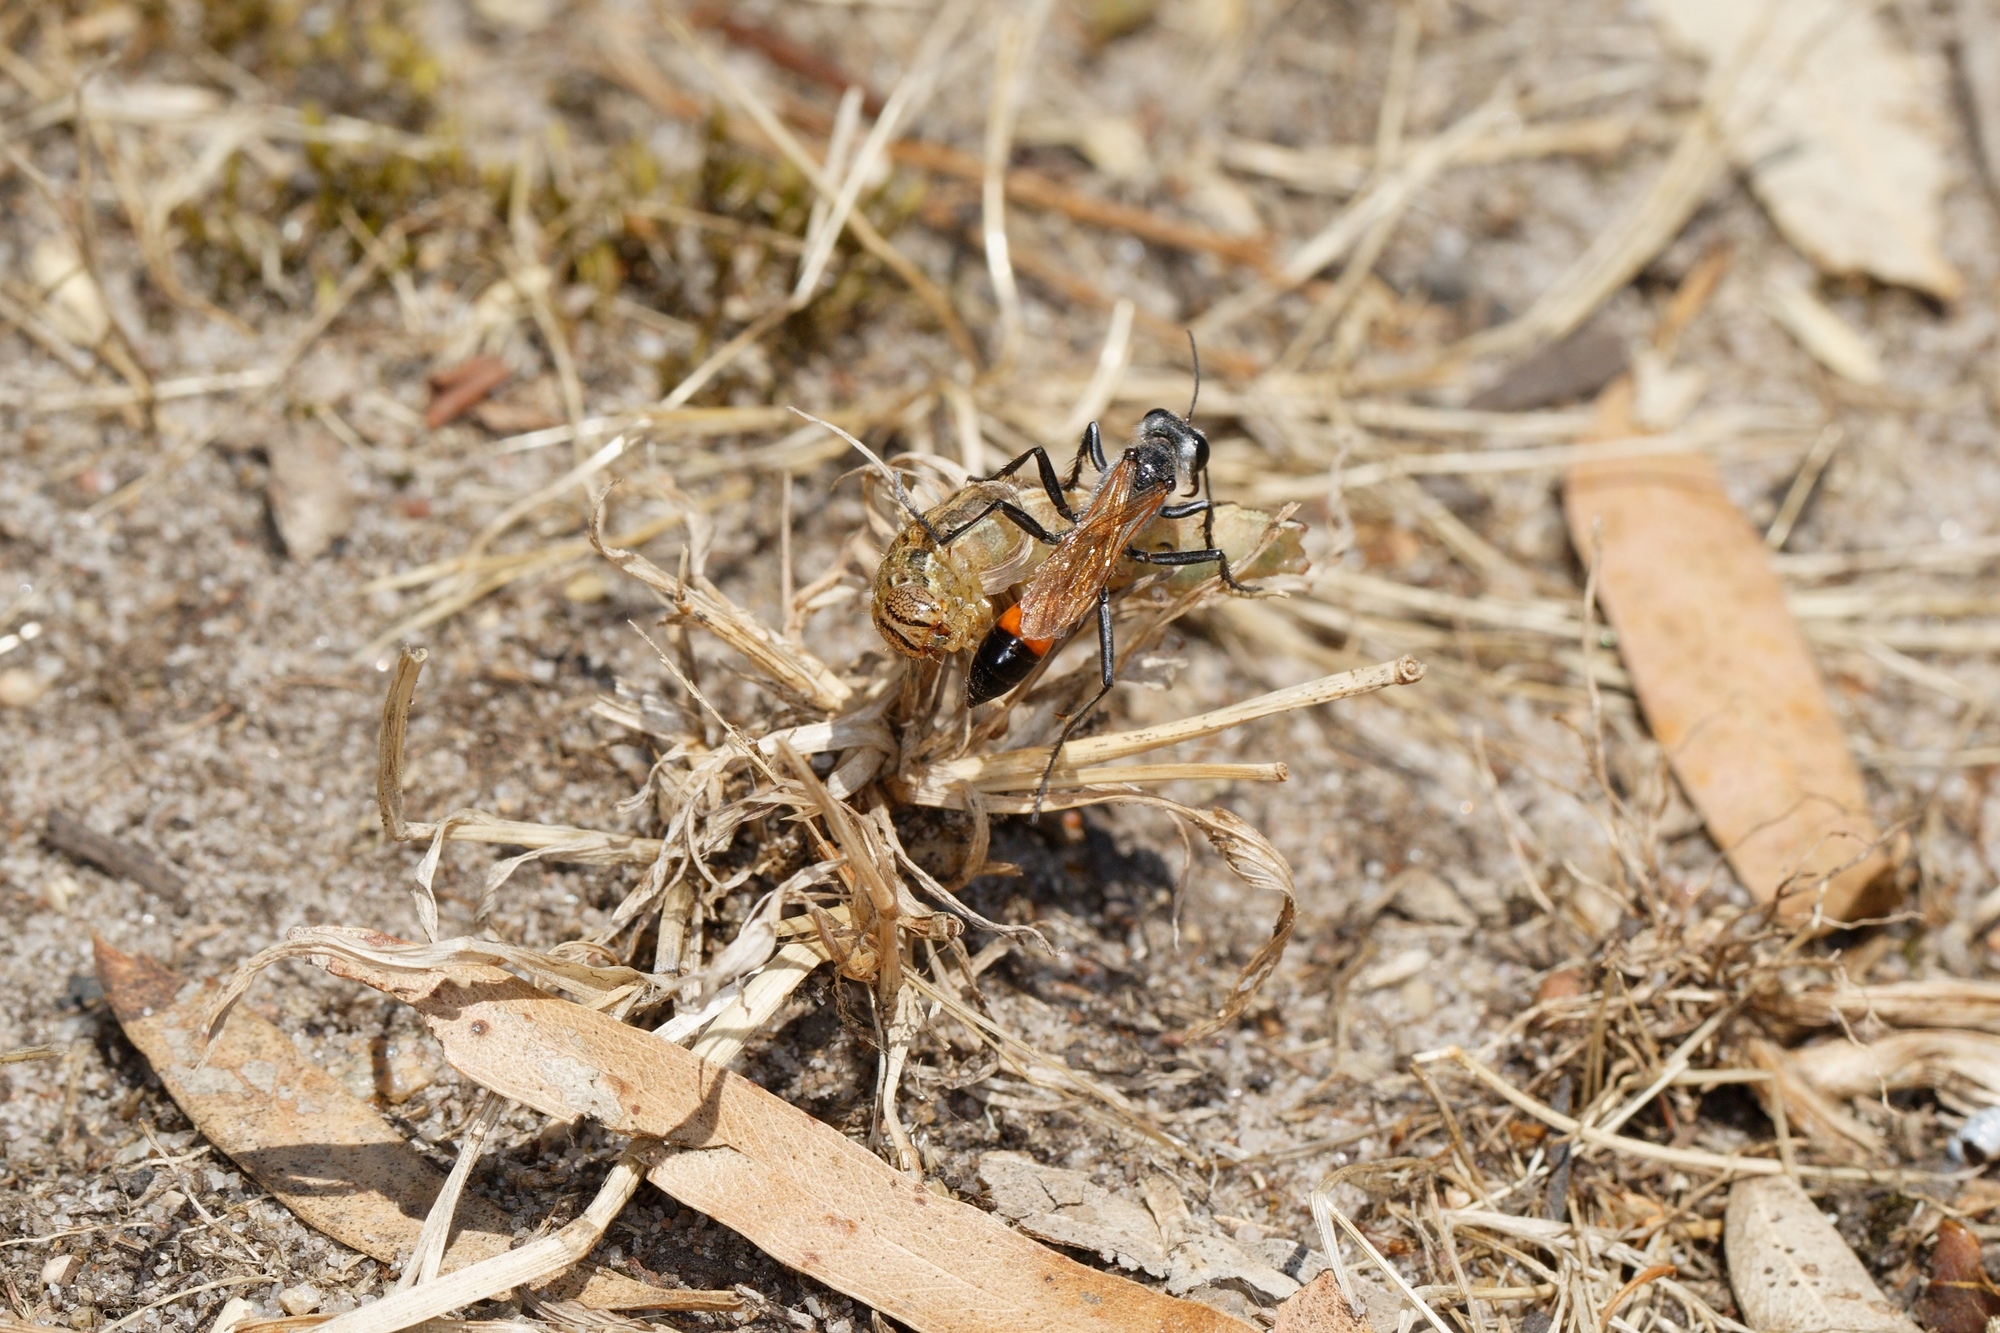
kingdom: Animalia
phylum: Arthropoda
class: Insecta
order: Hymenoptera
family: Sphecidae
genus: Podalonia
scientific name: Podalonia tydei
